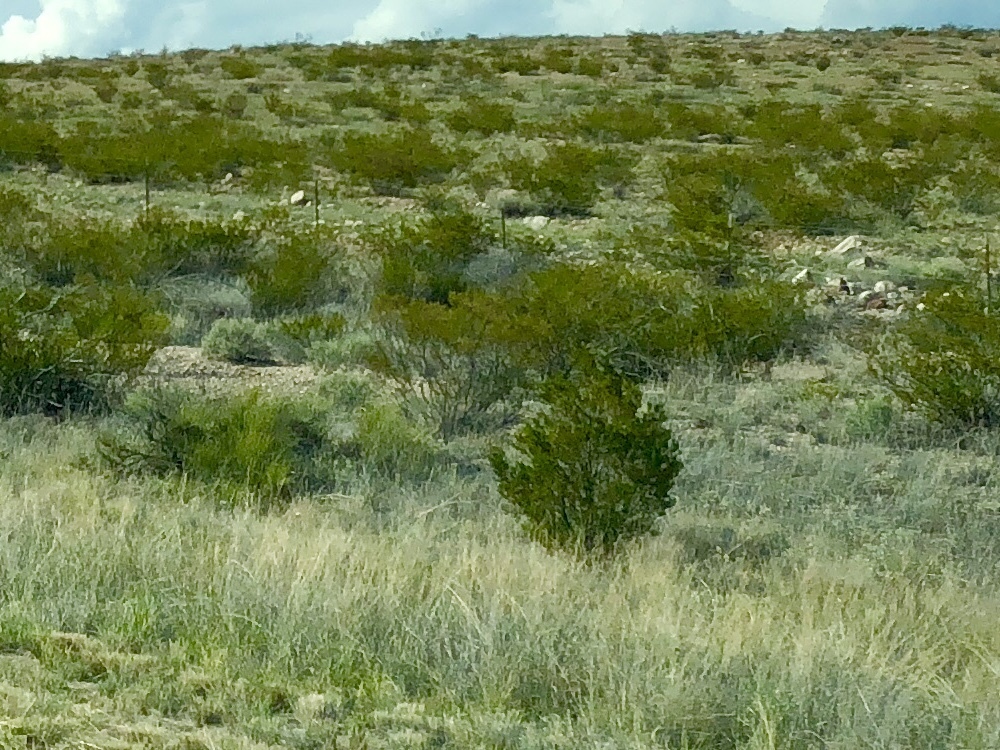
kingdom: Plantae
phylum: Tracheophyta
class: Magnoliopsida
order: Zygophyllales
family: Zygophyllaceae
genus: Larrea
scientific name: Larrea tridentata
